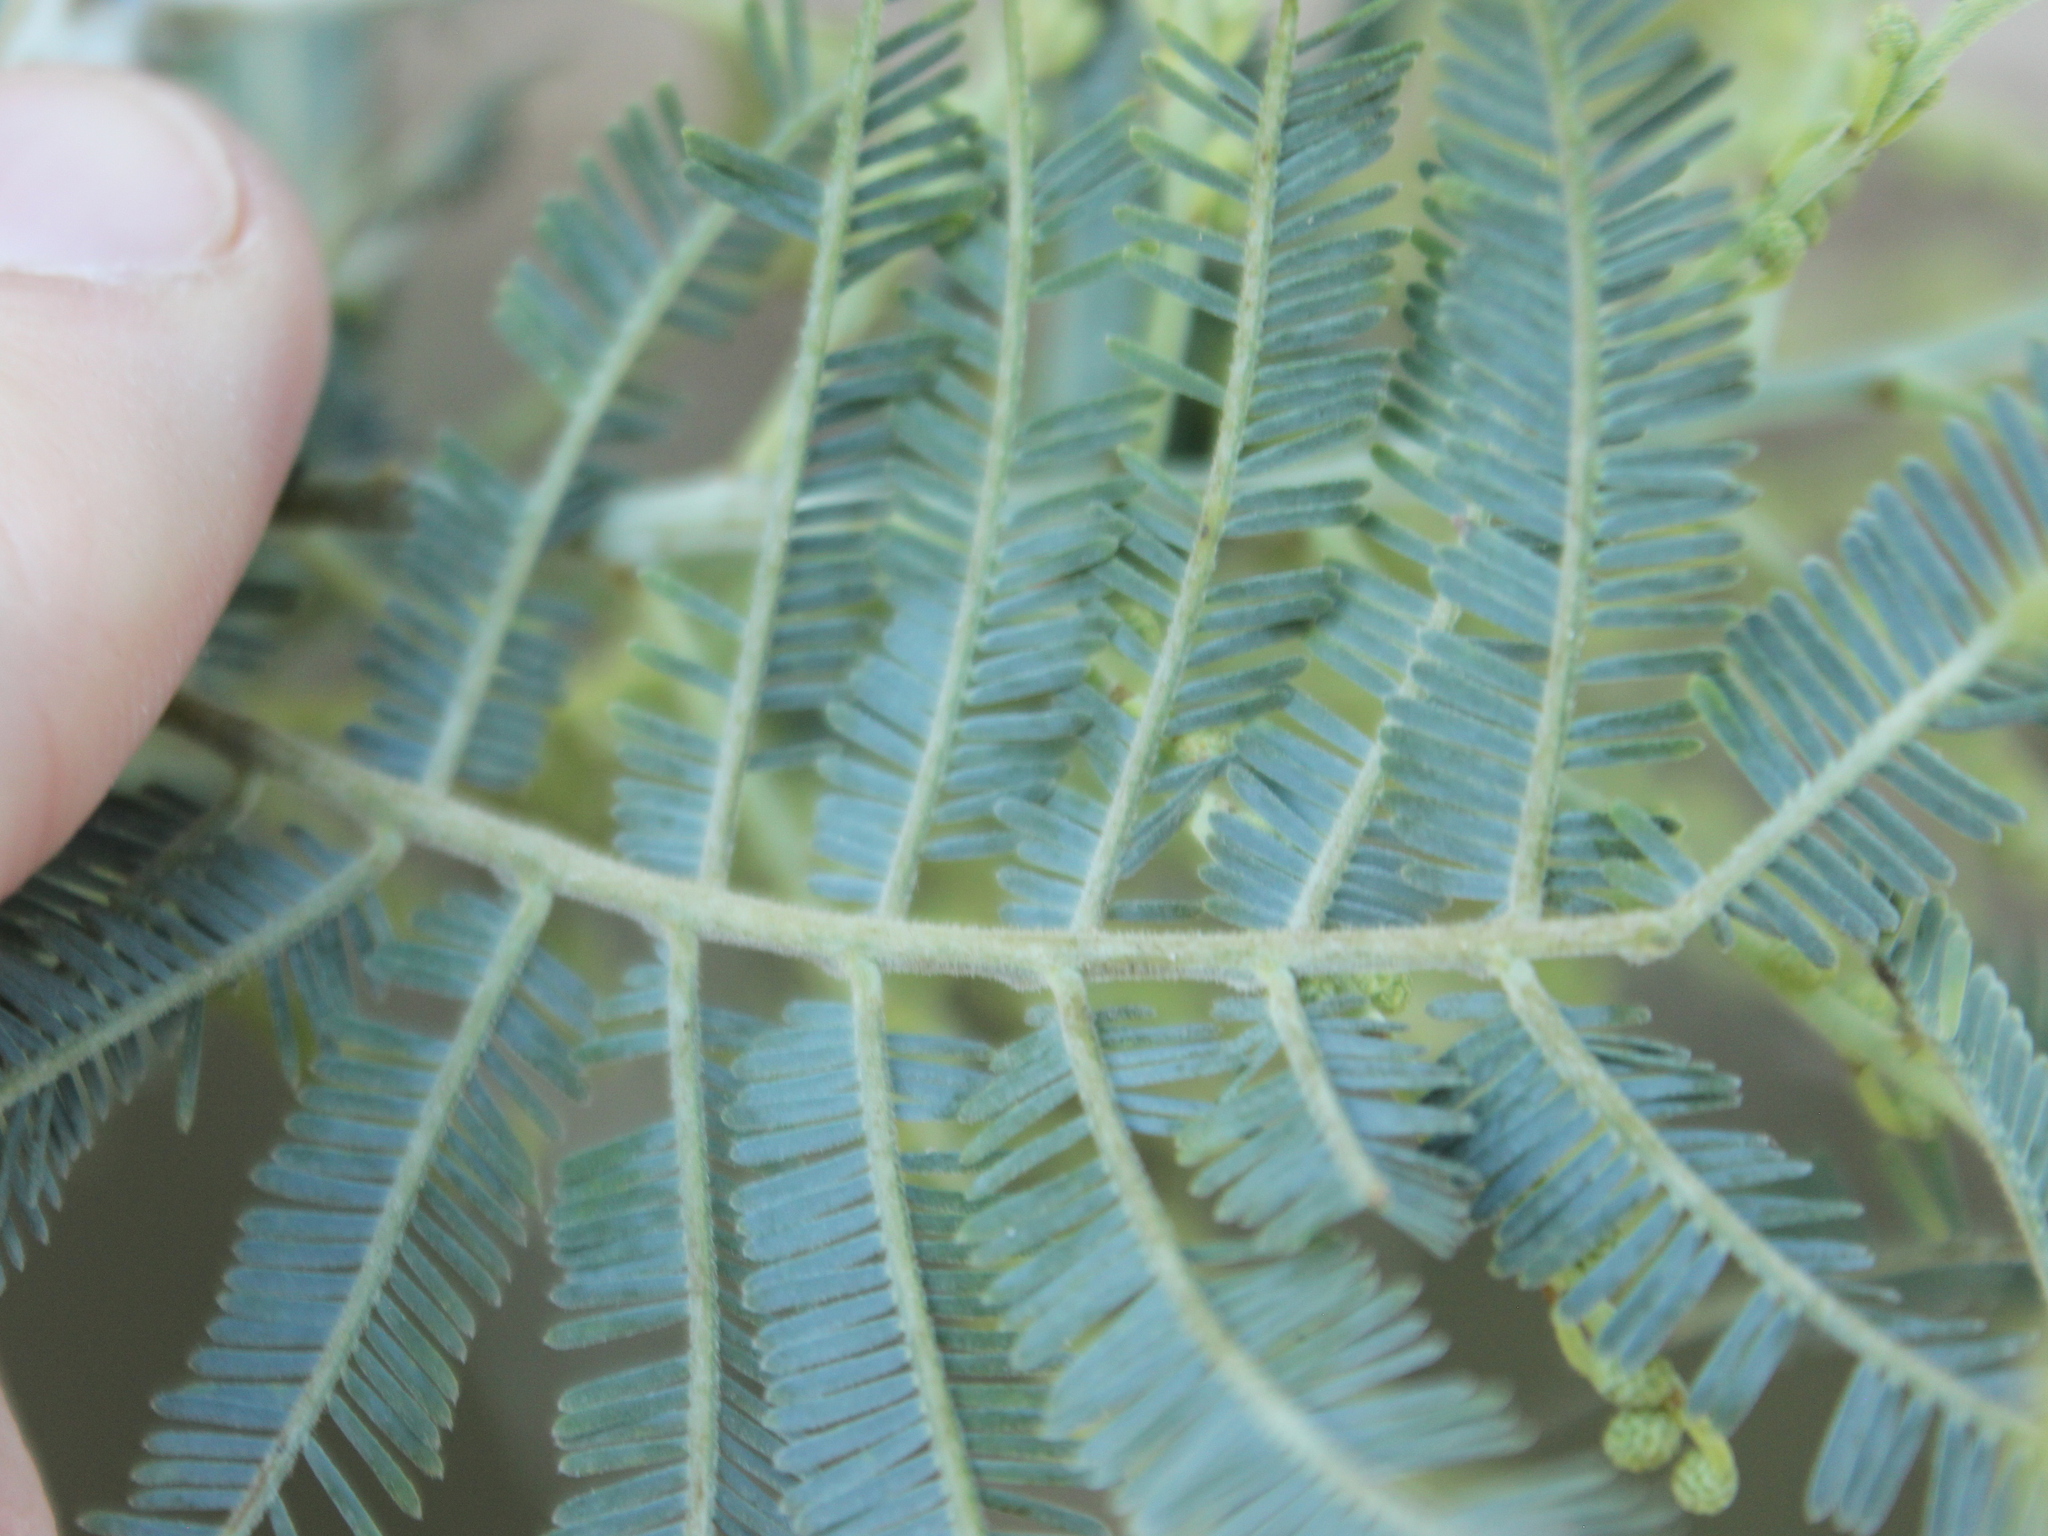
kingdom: Plantae
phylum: Tracheophyta
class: Magnoliopsida
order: Fabales
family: Fabaceae
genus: Acacia
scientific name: Acacia dealbata
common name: Silver wattle
